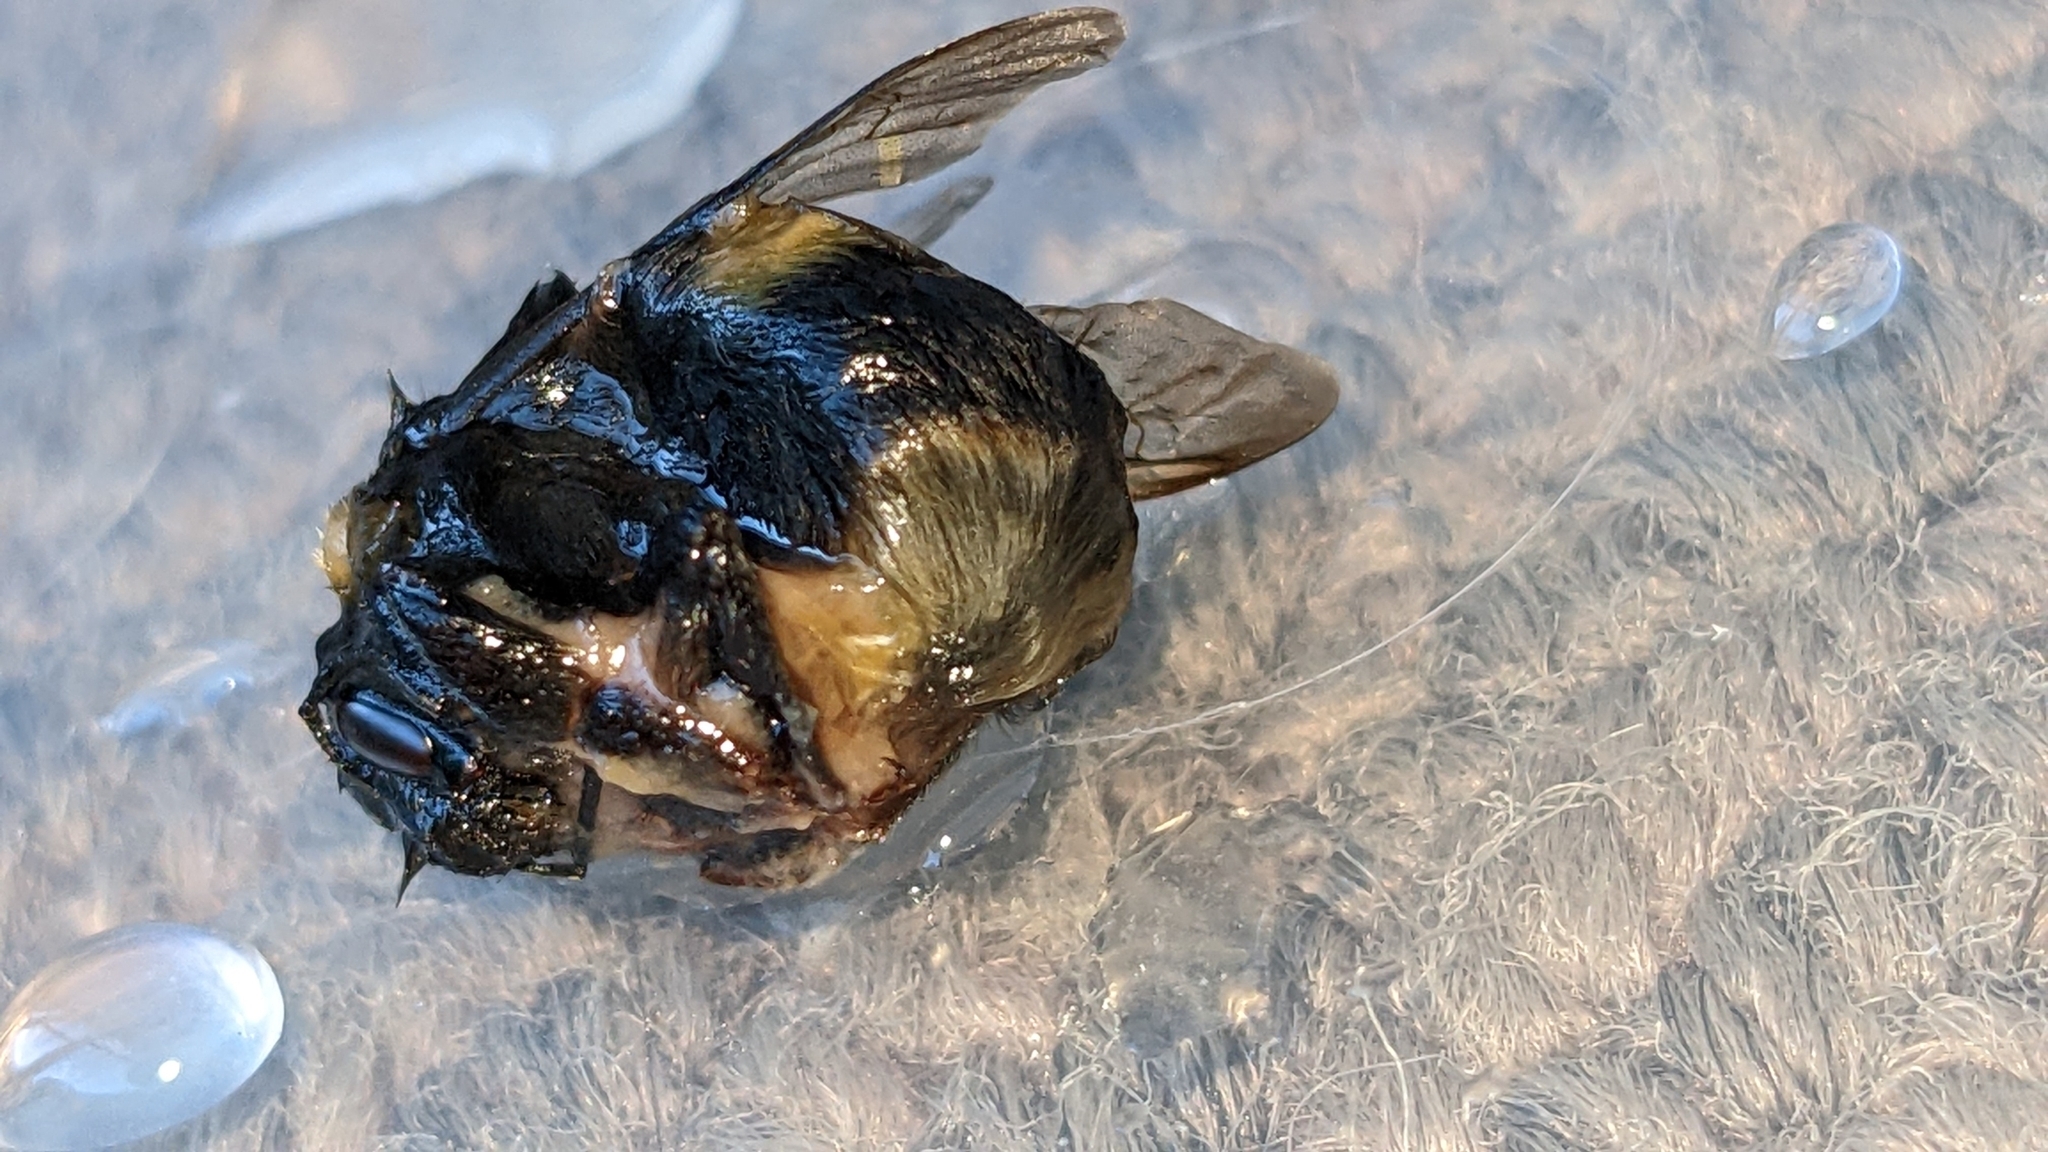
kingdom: Animalia
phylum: Arthropoda
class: Insecta
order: Hymenoptera
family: Apidae
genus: Bombus
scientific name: Bombus terrestris
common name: Buff-tailed bumblebee
